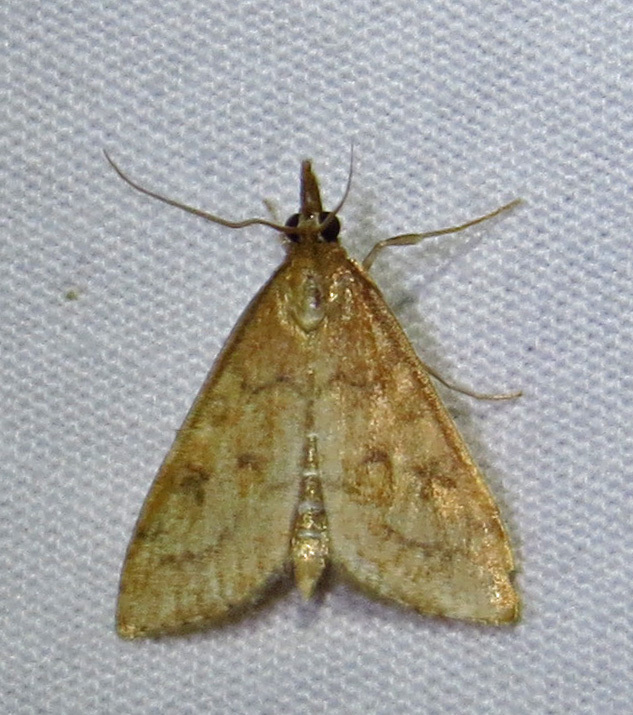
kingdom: Animalia
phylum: Arthropoda
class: Insecta
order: Lepidoptera
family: Crambidae
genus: Udea
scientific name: Udea rubigalis
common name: Celery leaftier moth
